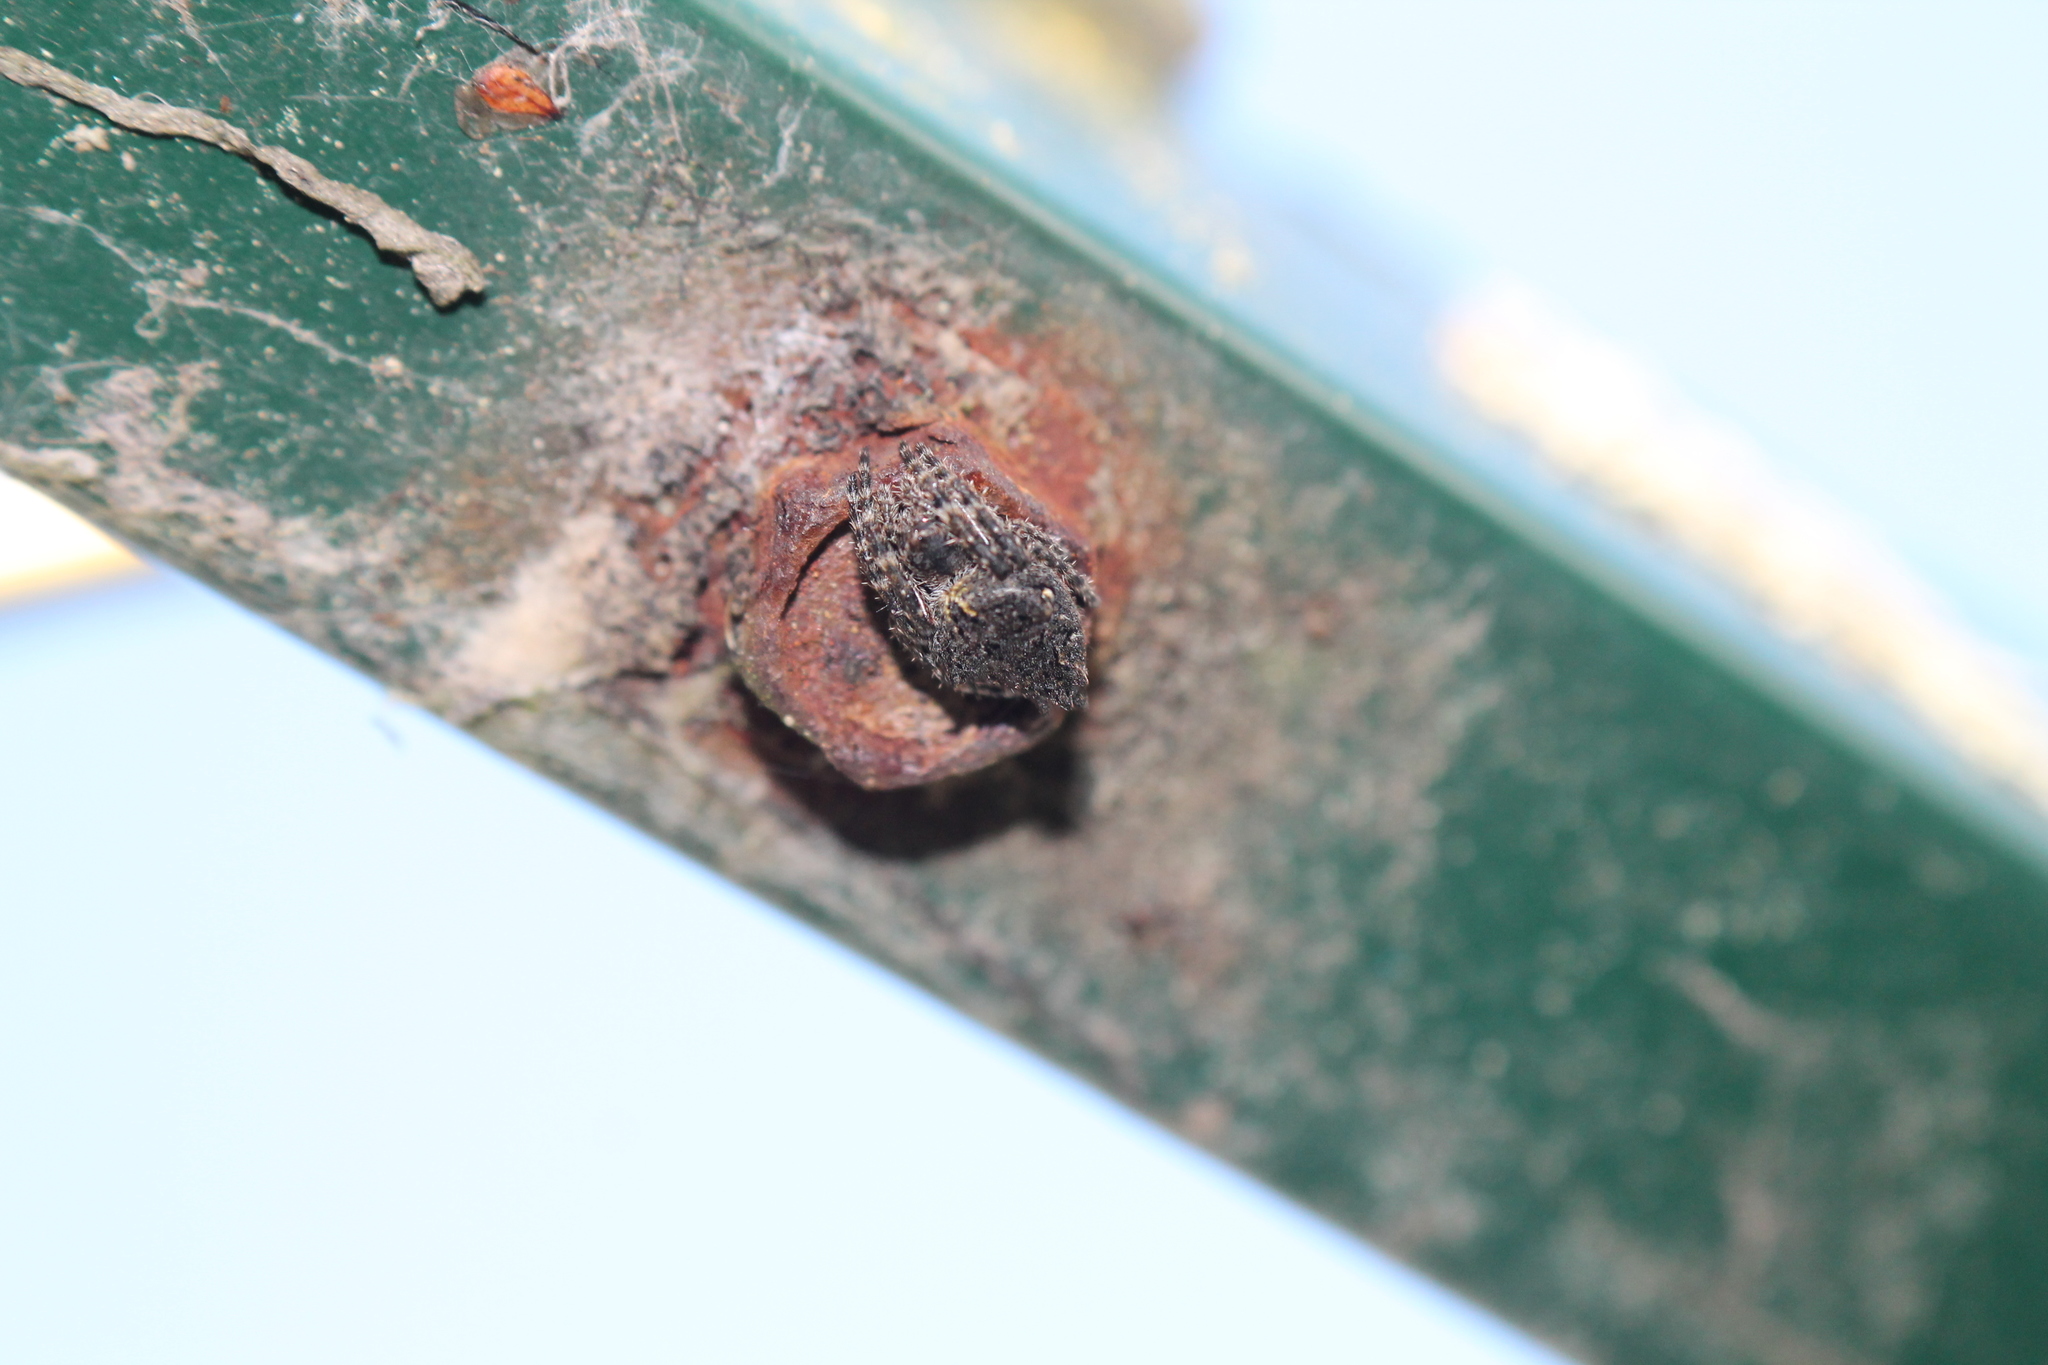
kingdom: Animalia
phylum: Arthropoda
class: Arachnida
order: Araneae
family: Araneidae
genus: Eriophora
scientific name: Eriophora pustulosa
